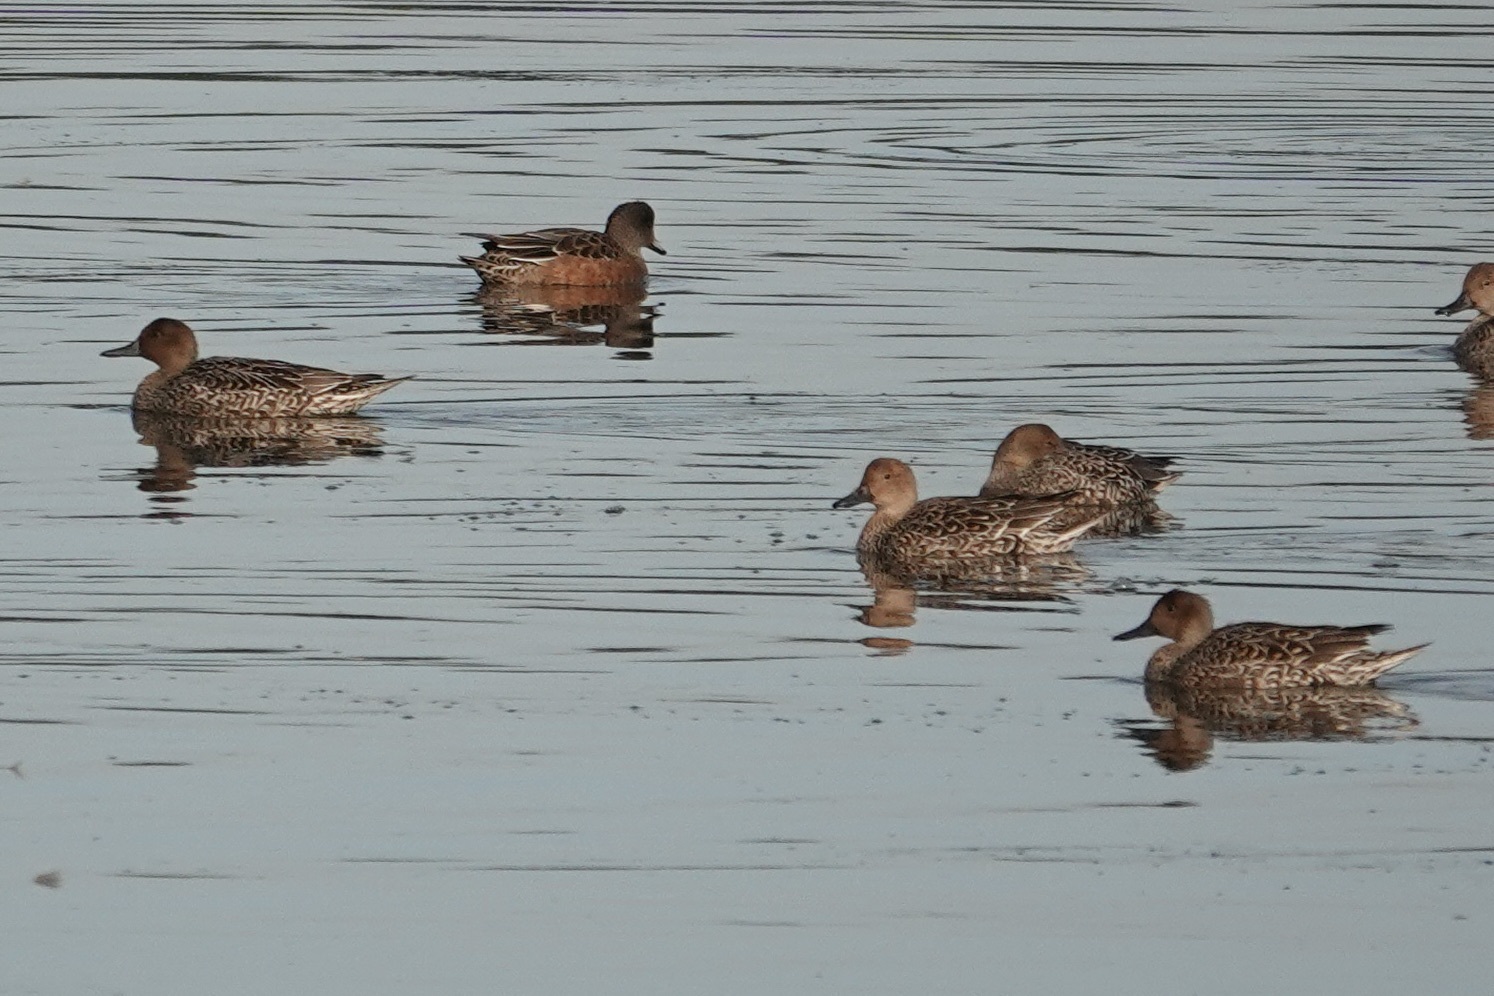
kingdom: Animalia
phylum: Chordata
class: Aves
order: Anseriformes
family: Anatidae
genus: Anas
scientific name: Anas acuta
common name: Northern pintail
